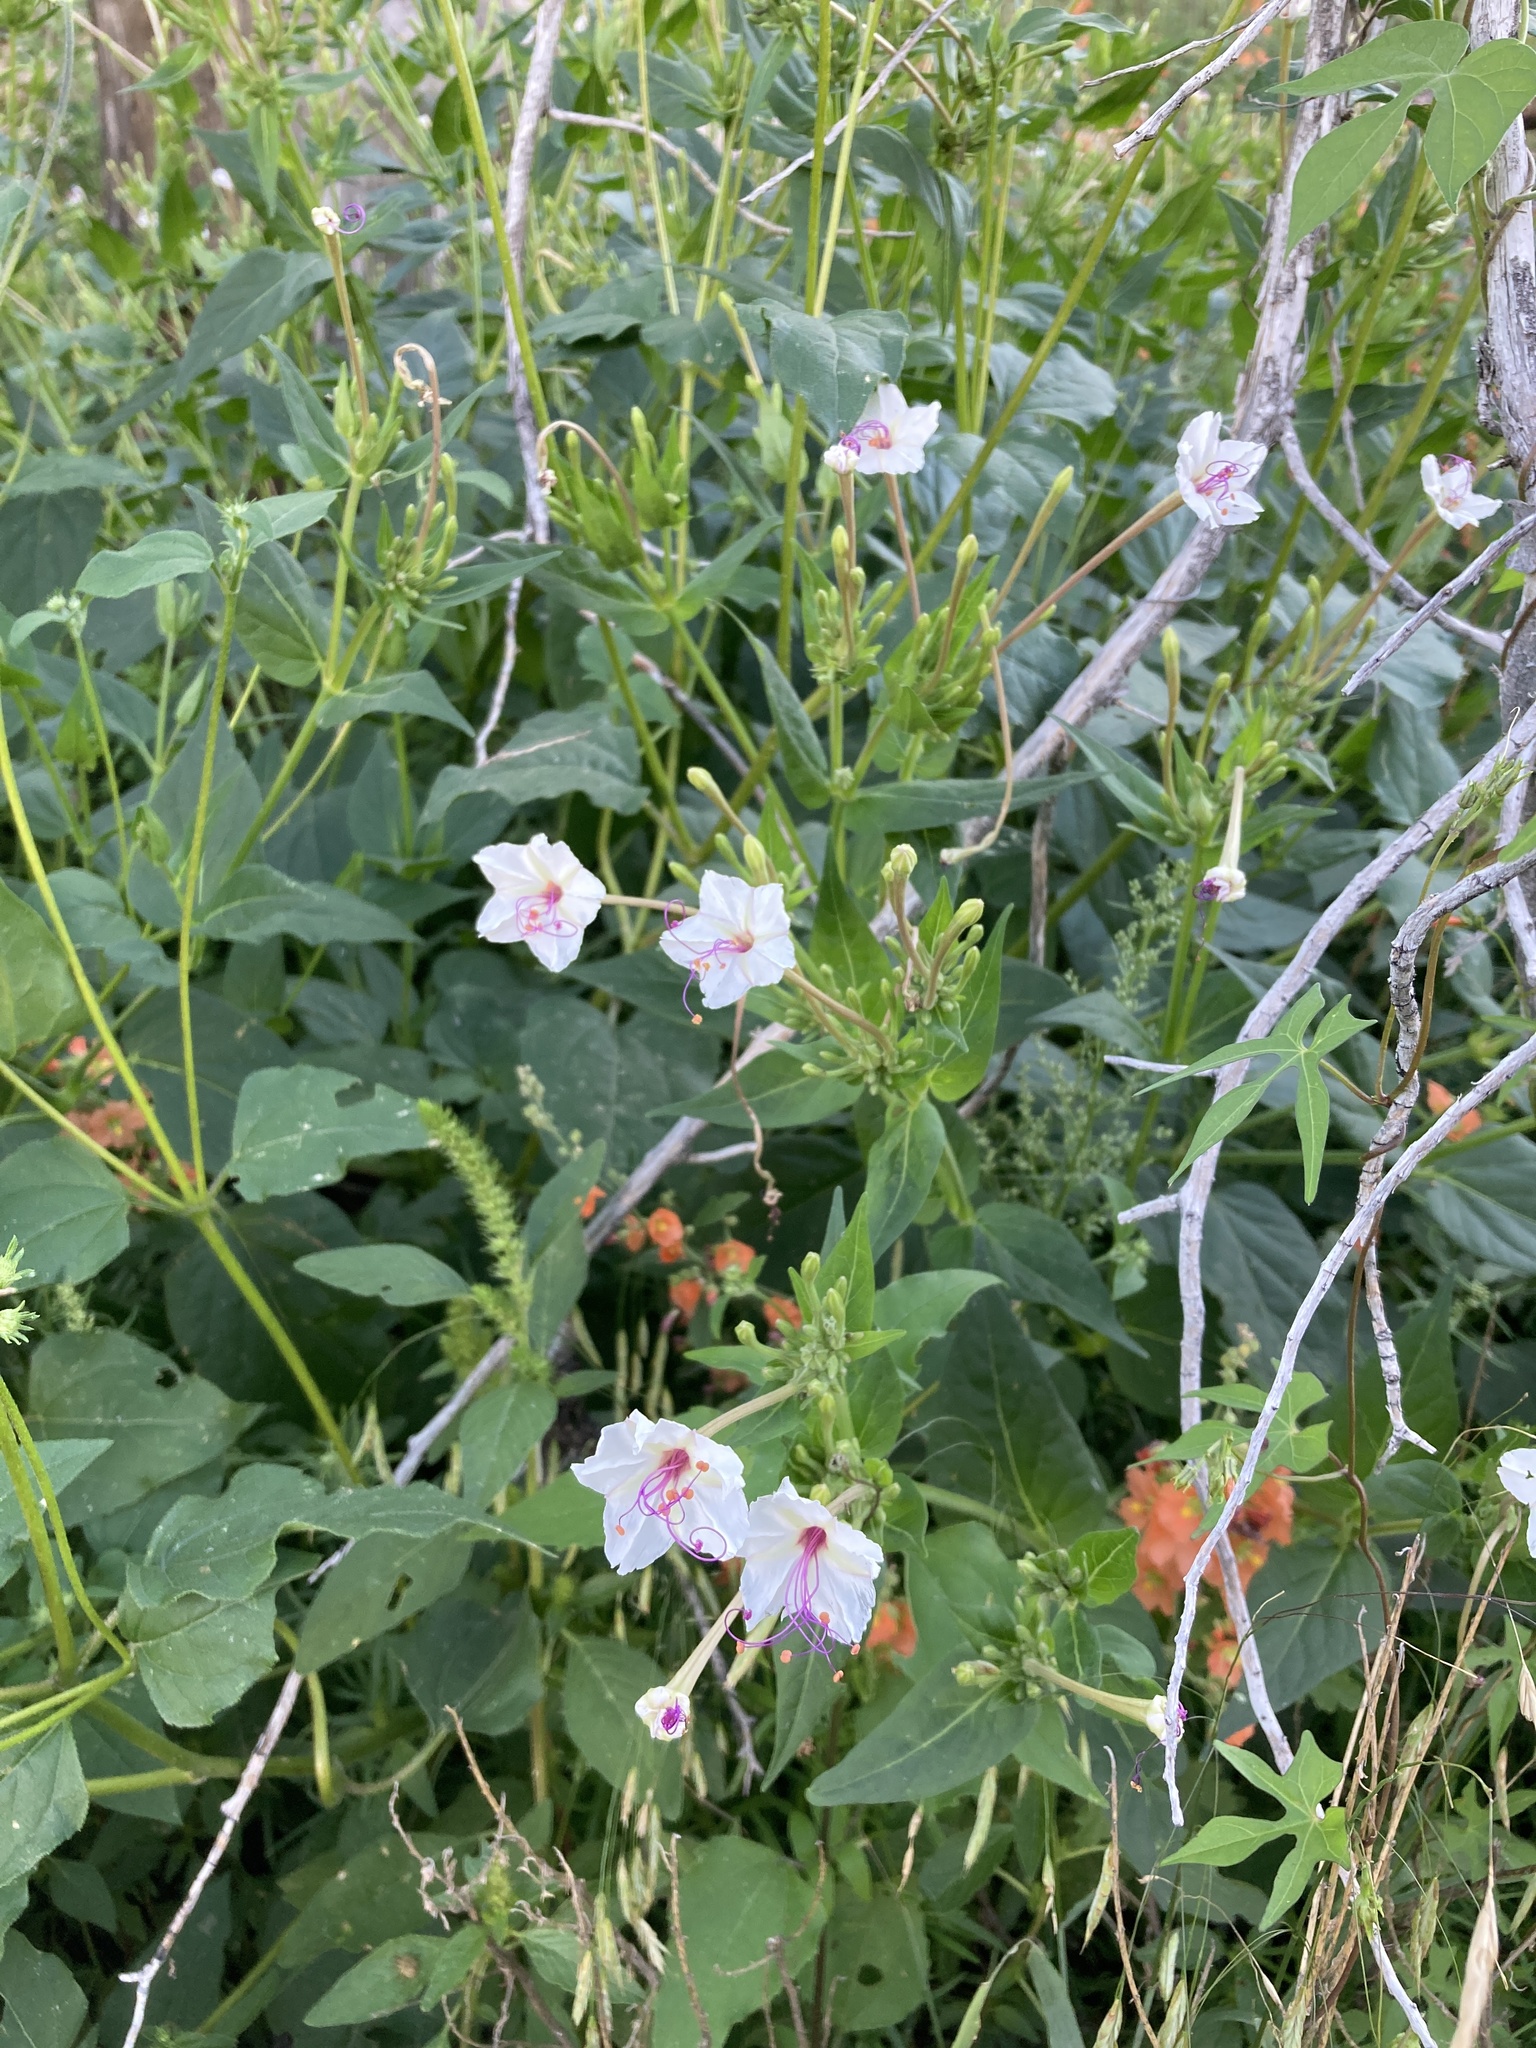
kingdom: Plantae
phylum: Tracheophyta
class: Magnoliopsida
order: Caryophyllales
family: Nyctaginaceae
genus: Mirabilis
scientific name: Mirabilis longiflora
